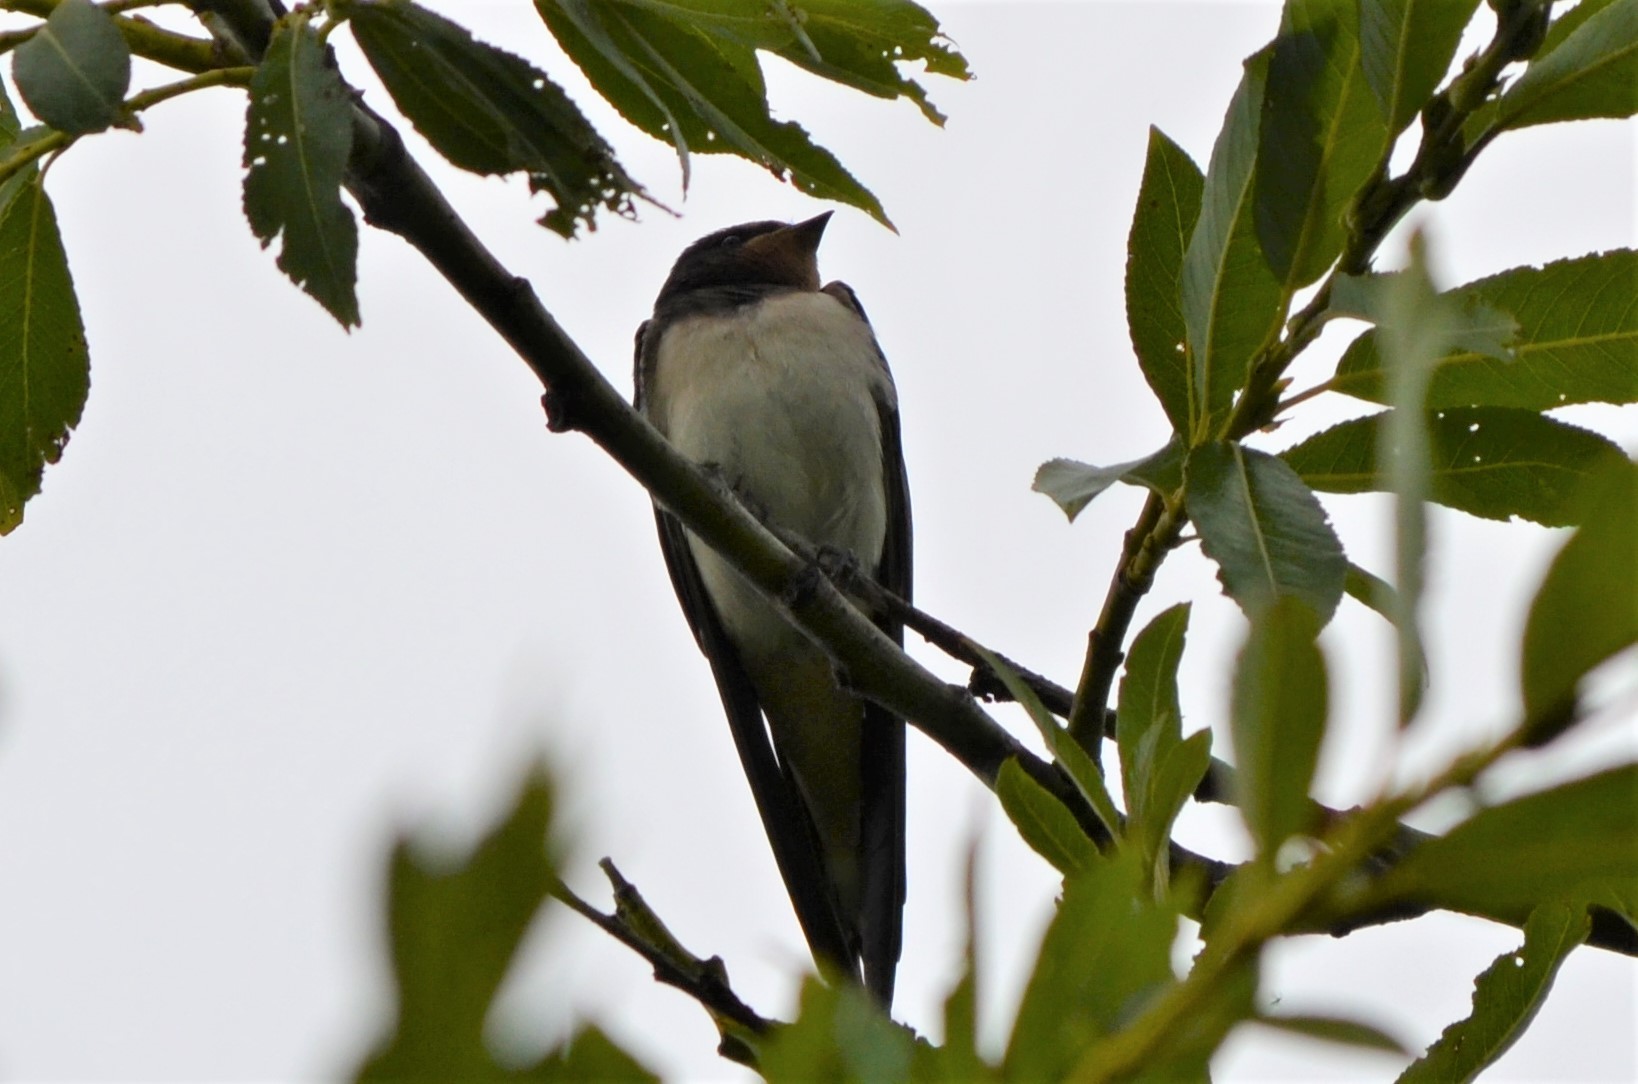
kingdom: Animalia
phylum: Chordata
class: Aves
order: Passeriformes
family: Hirundinidae
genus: Hirundo
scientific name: Hirundo rustica
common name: Barn swallow
